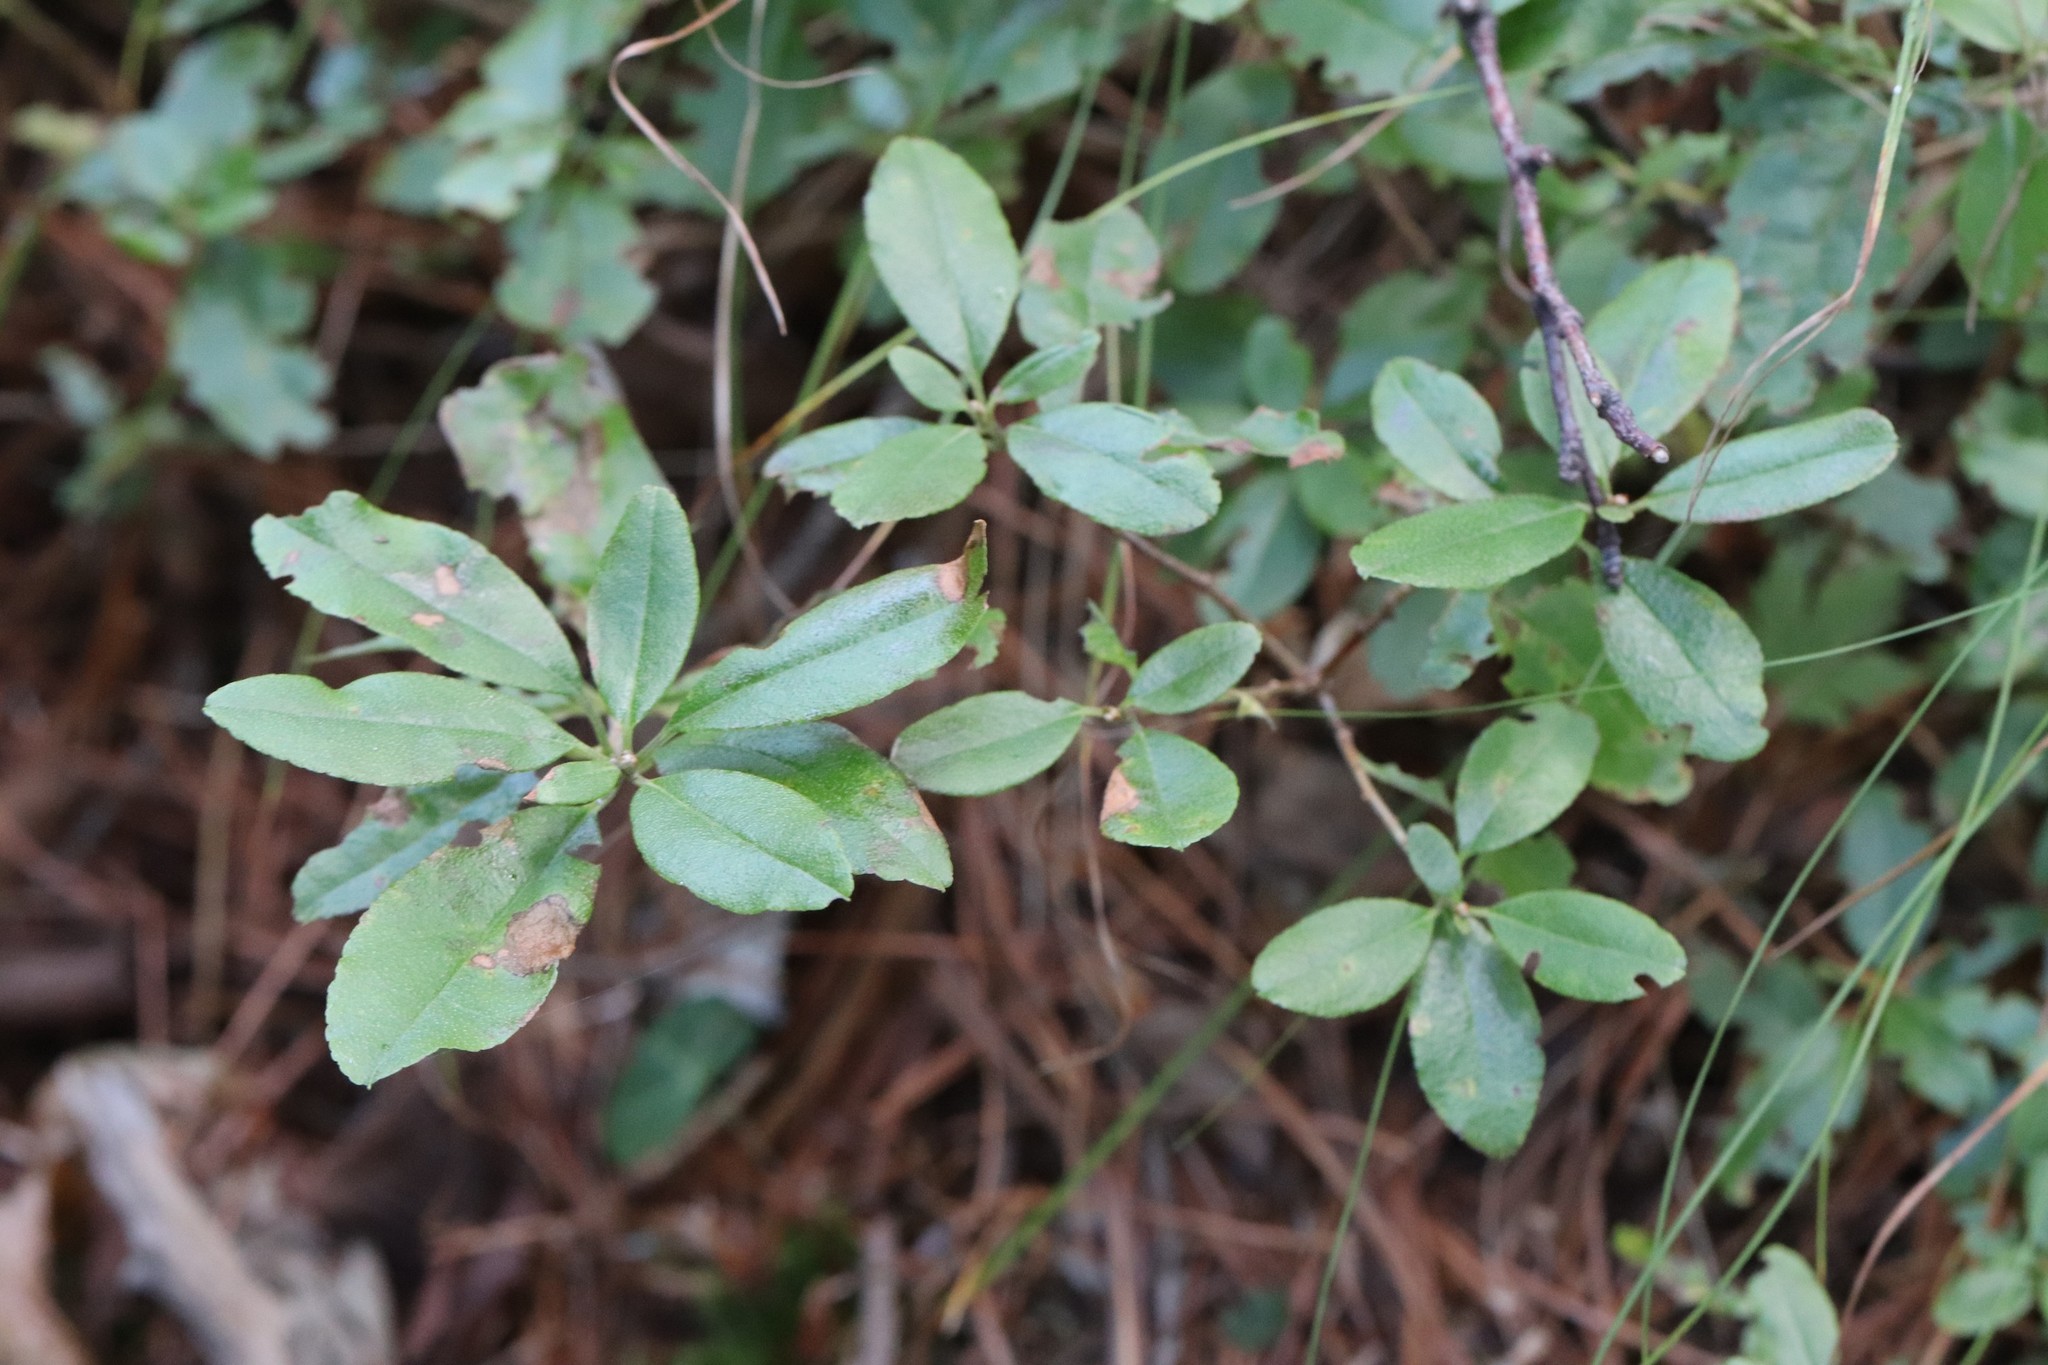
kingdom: Plantae
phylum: Tracheophyta
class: Magnoliopsida
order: Ericales
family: Ericaceae
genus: Rhododendron
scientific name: Rhododendron mucronulatum
